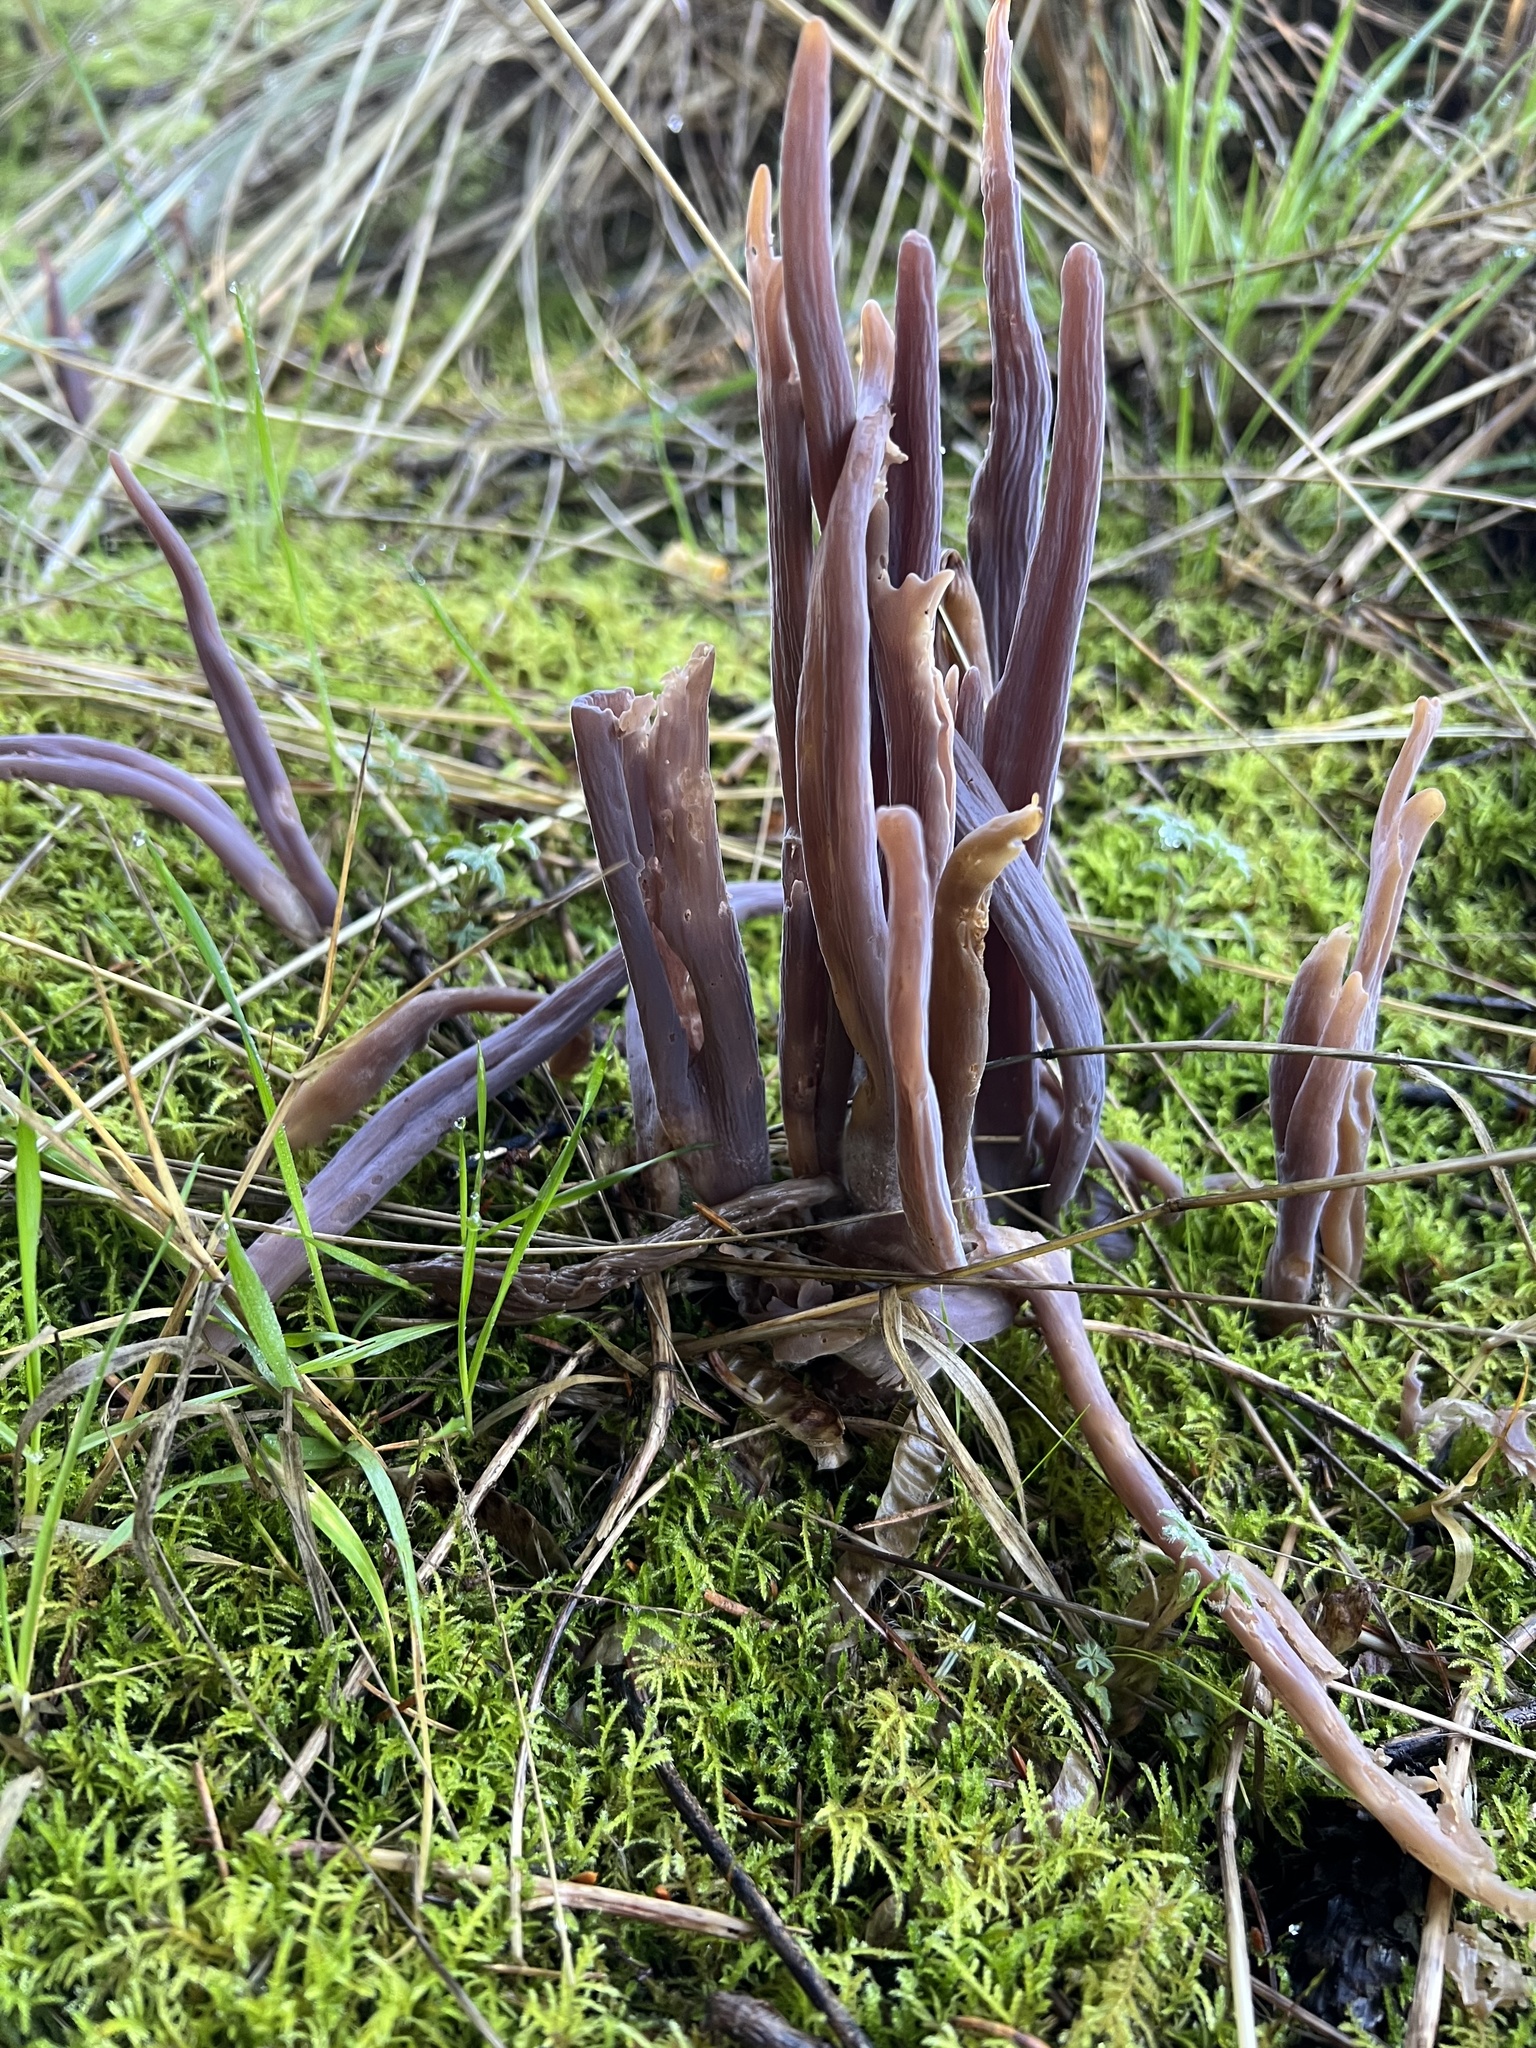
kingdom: Fungi
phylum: Basidiomycota
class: Agaricomycetes
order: Hymenochaetales
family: Rickenellaceae
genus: Alloclavaria
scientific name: Alloclavaria purpurea
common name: Purple spindles
